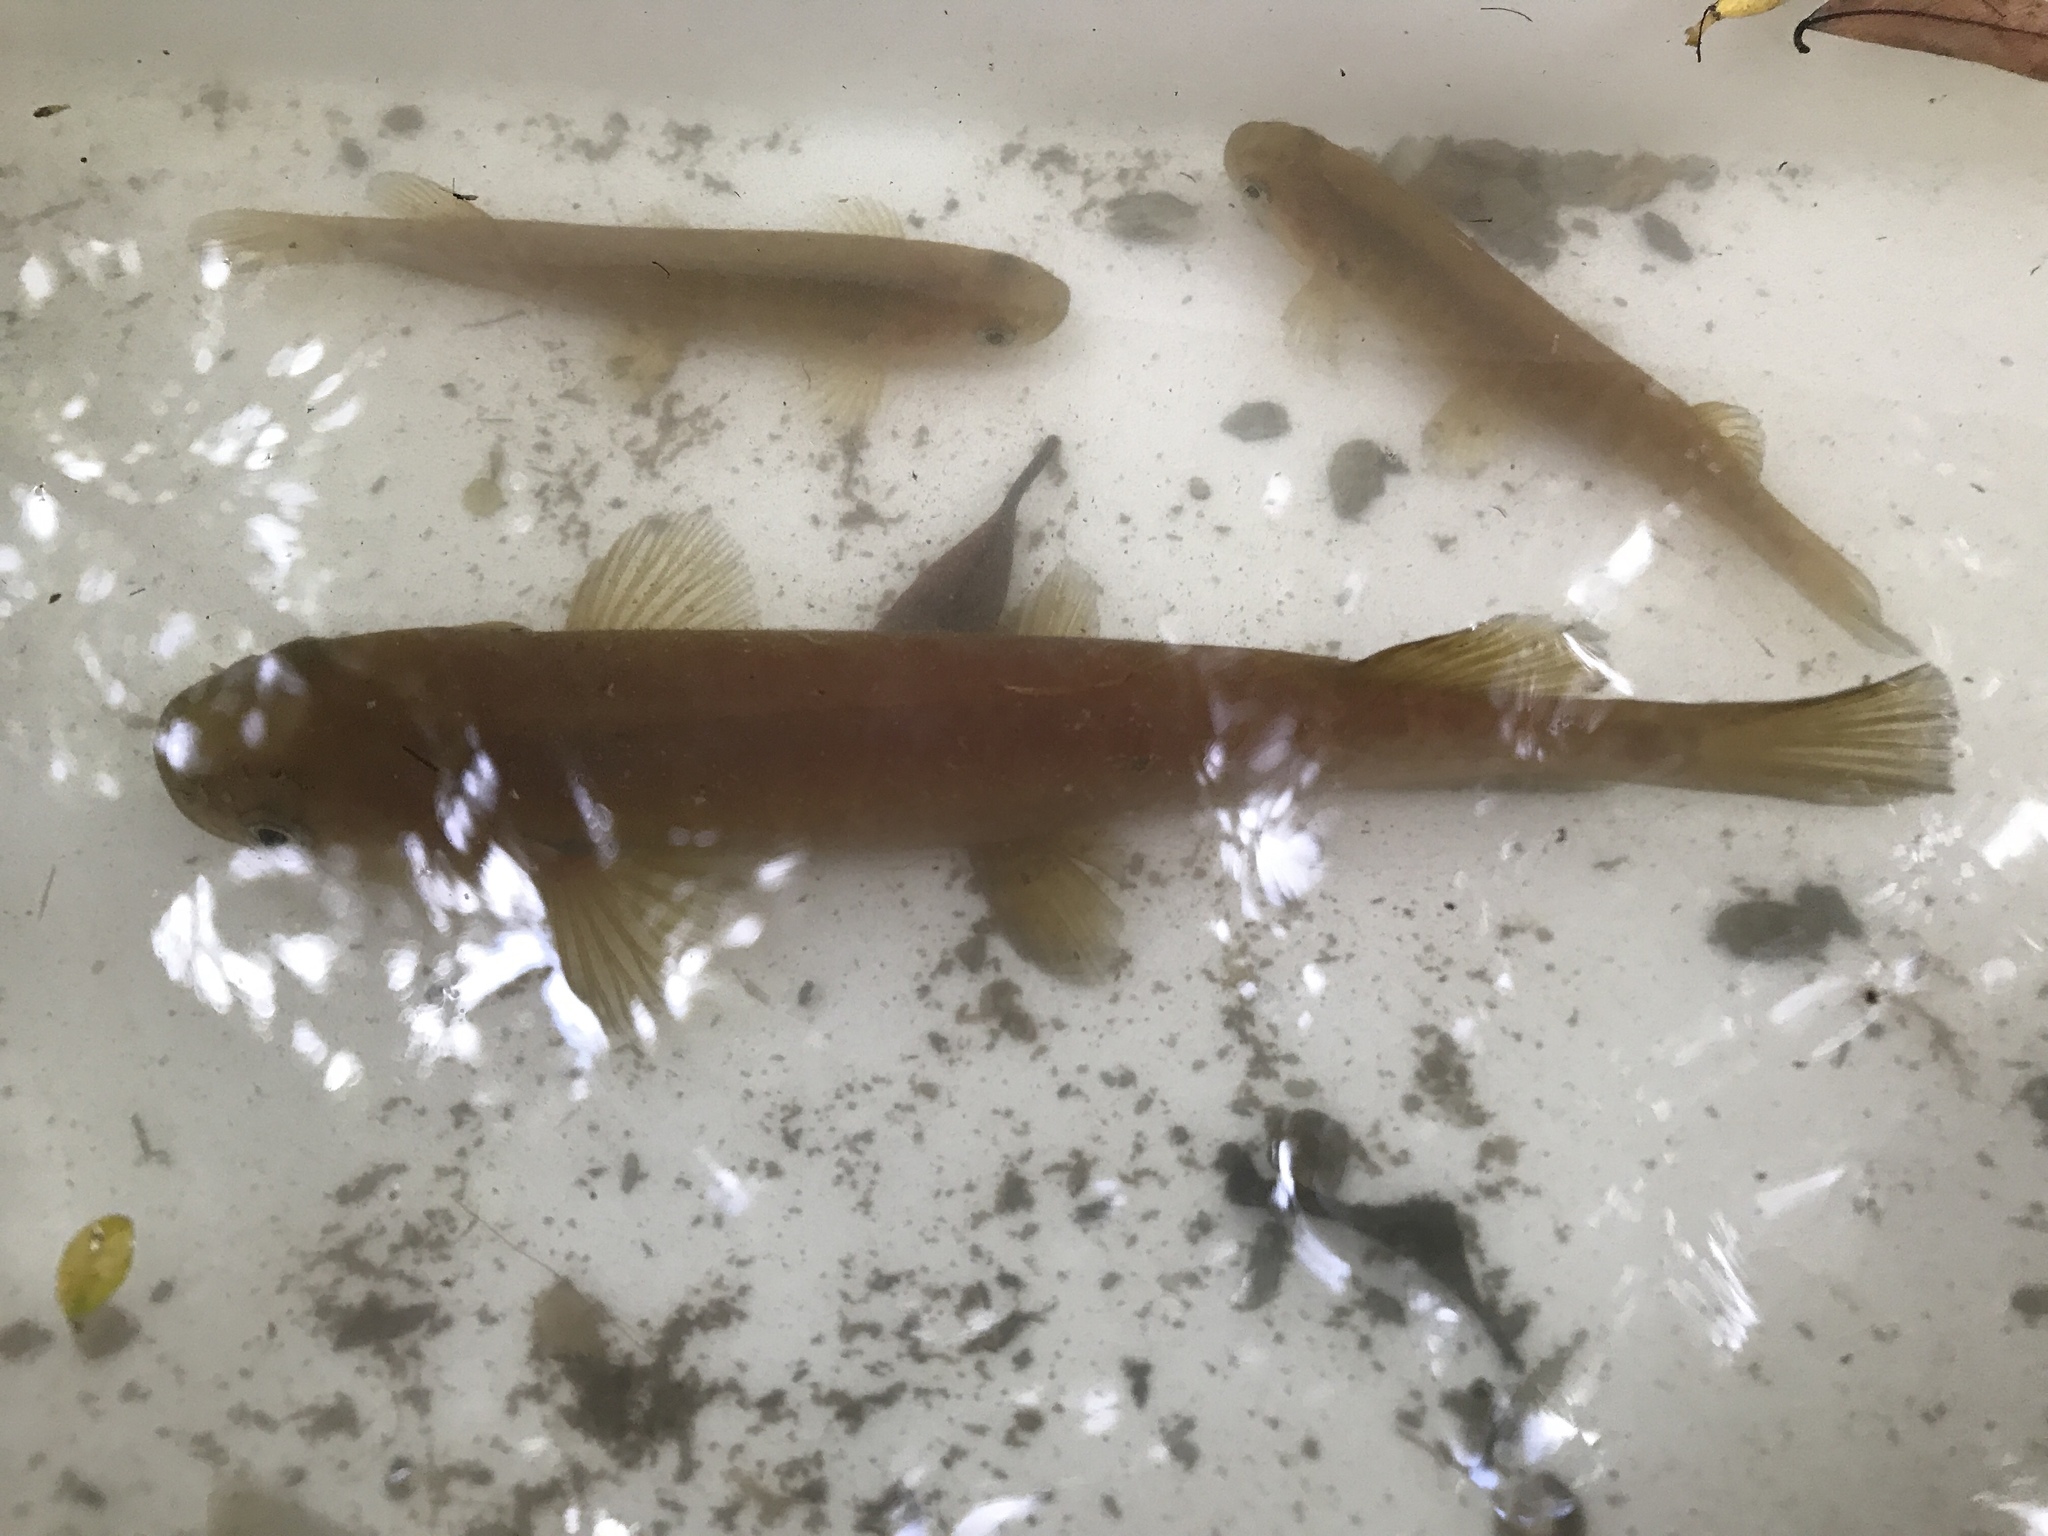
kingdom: Animalia
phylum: Chordata
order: Osmeriformes
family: Galaxiidae
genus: Galaxias
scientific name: Galaxias fasciatus
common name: Banded kokopu
